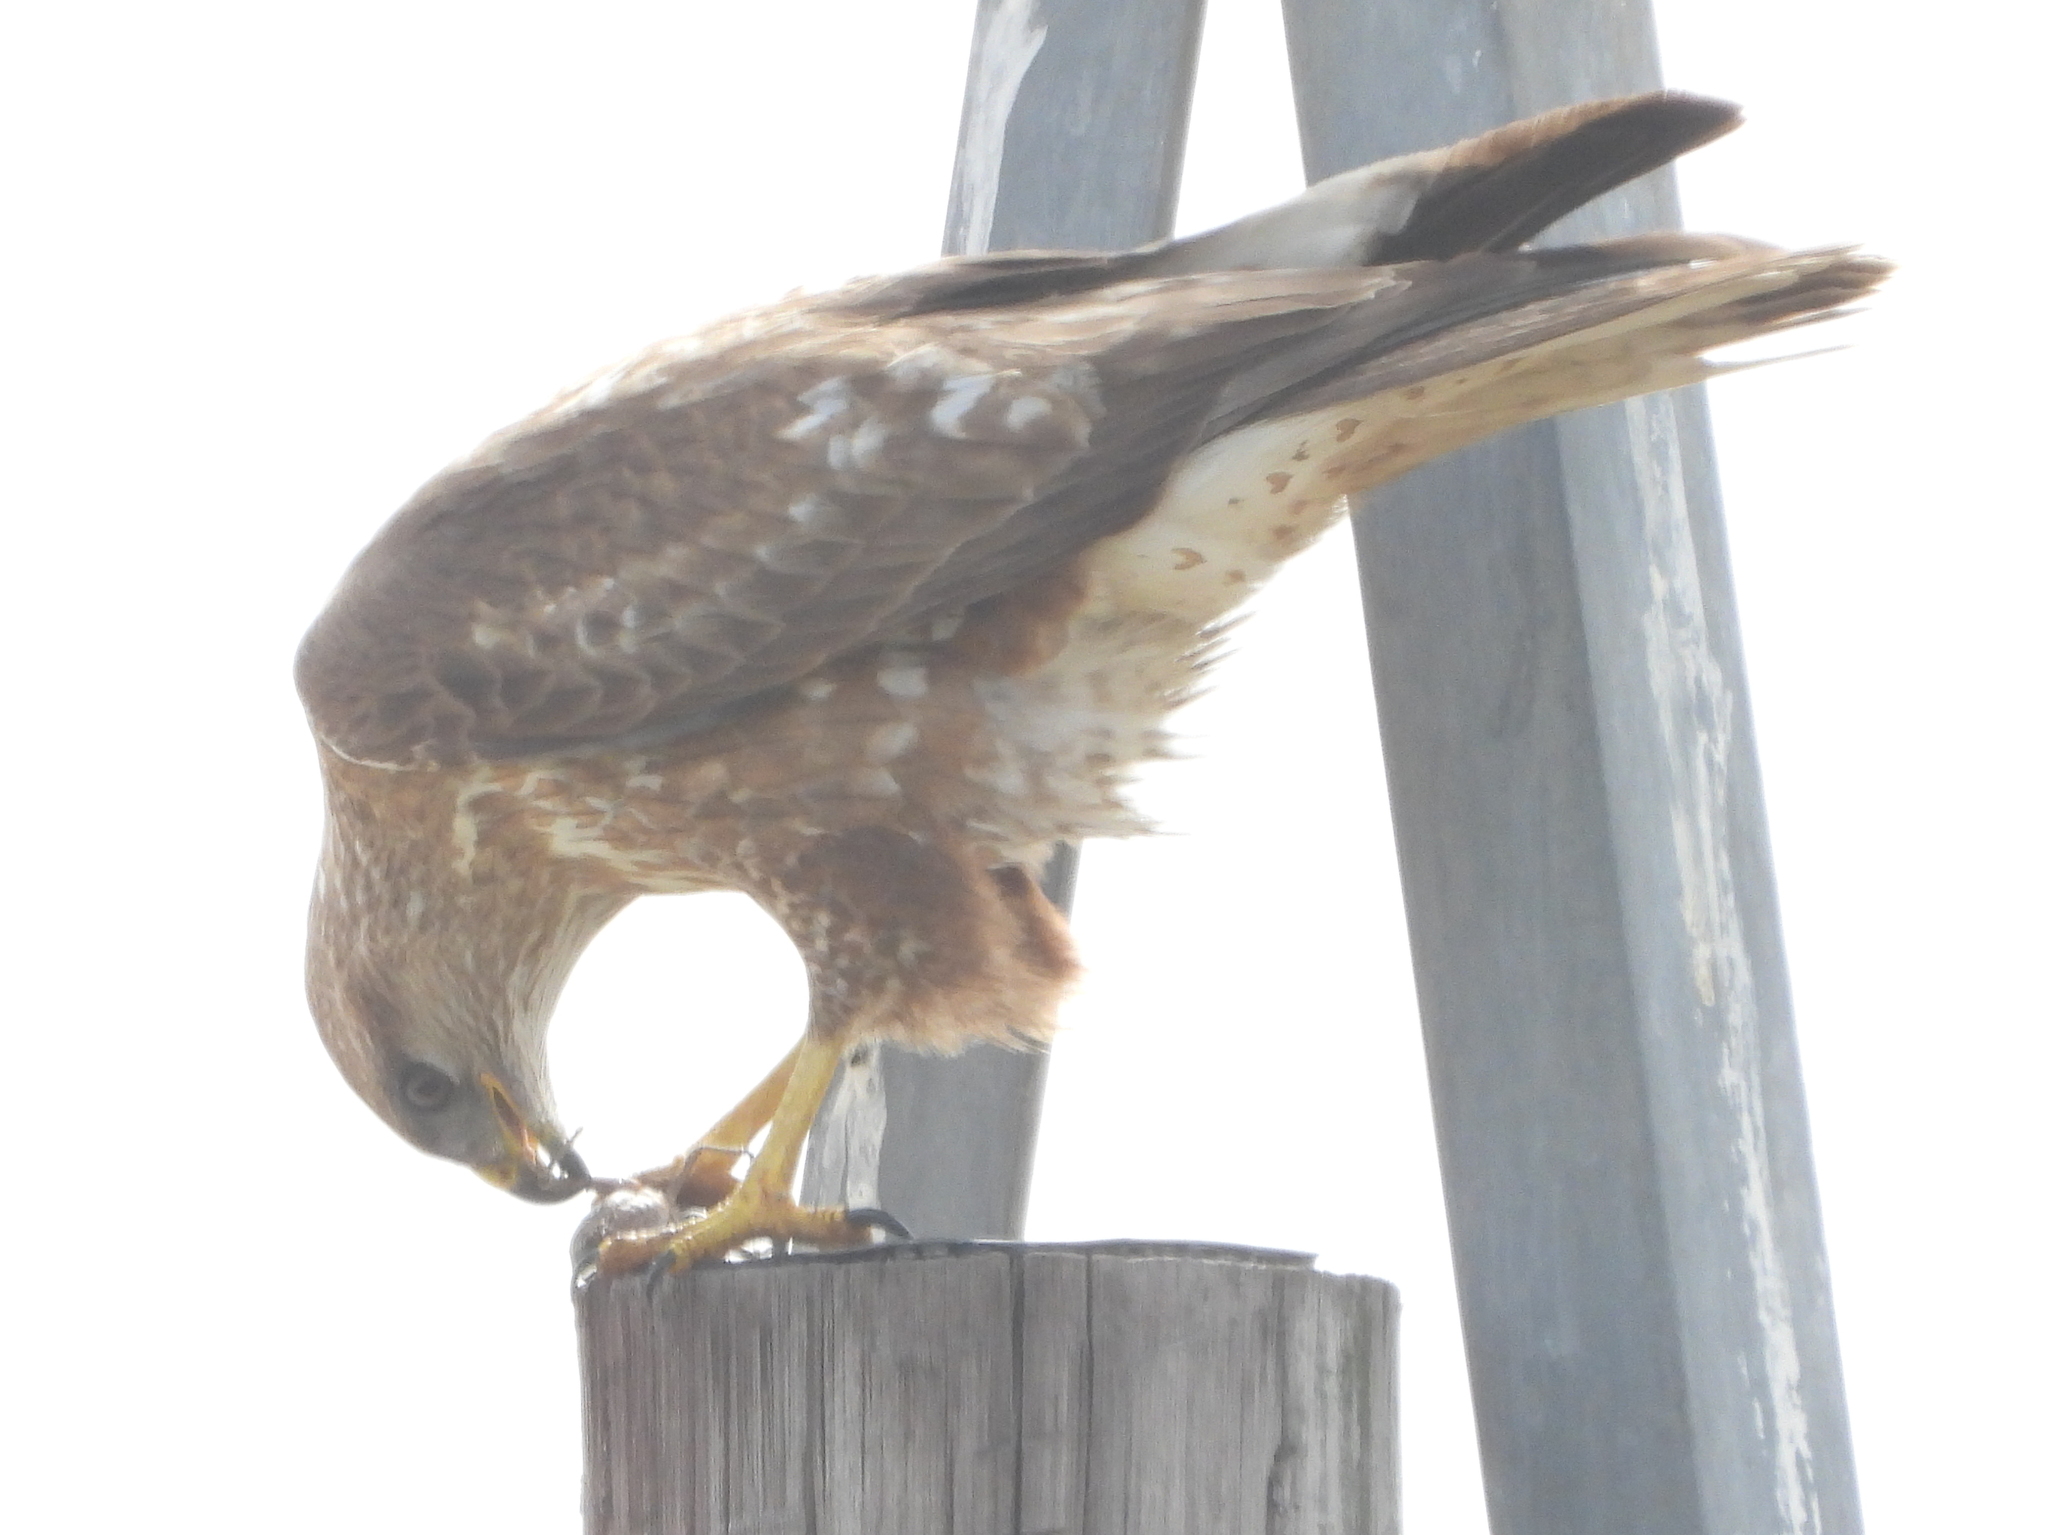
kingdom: Animalia
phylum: Chordata
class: Aves
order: Accipitriformes
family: Accipitridae
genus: Buteo
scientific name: Buteo buteo
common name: Common buzzard
